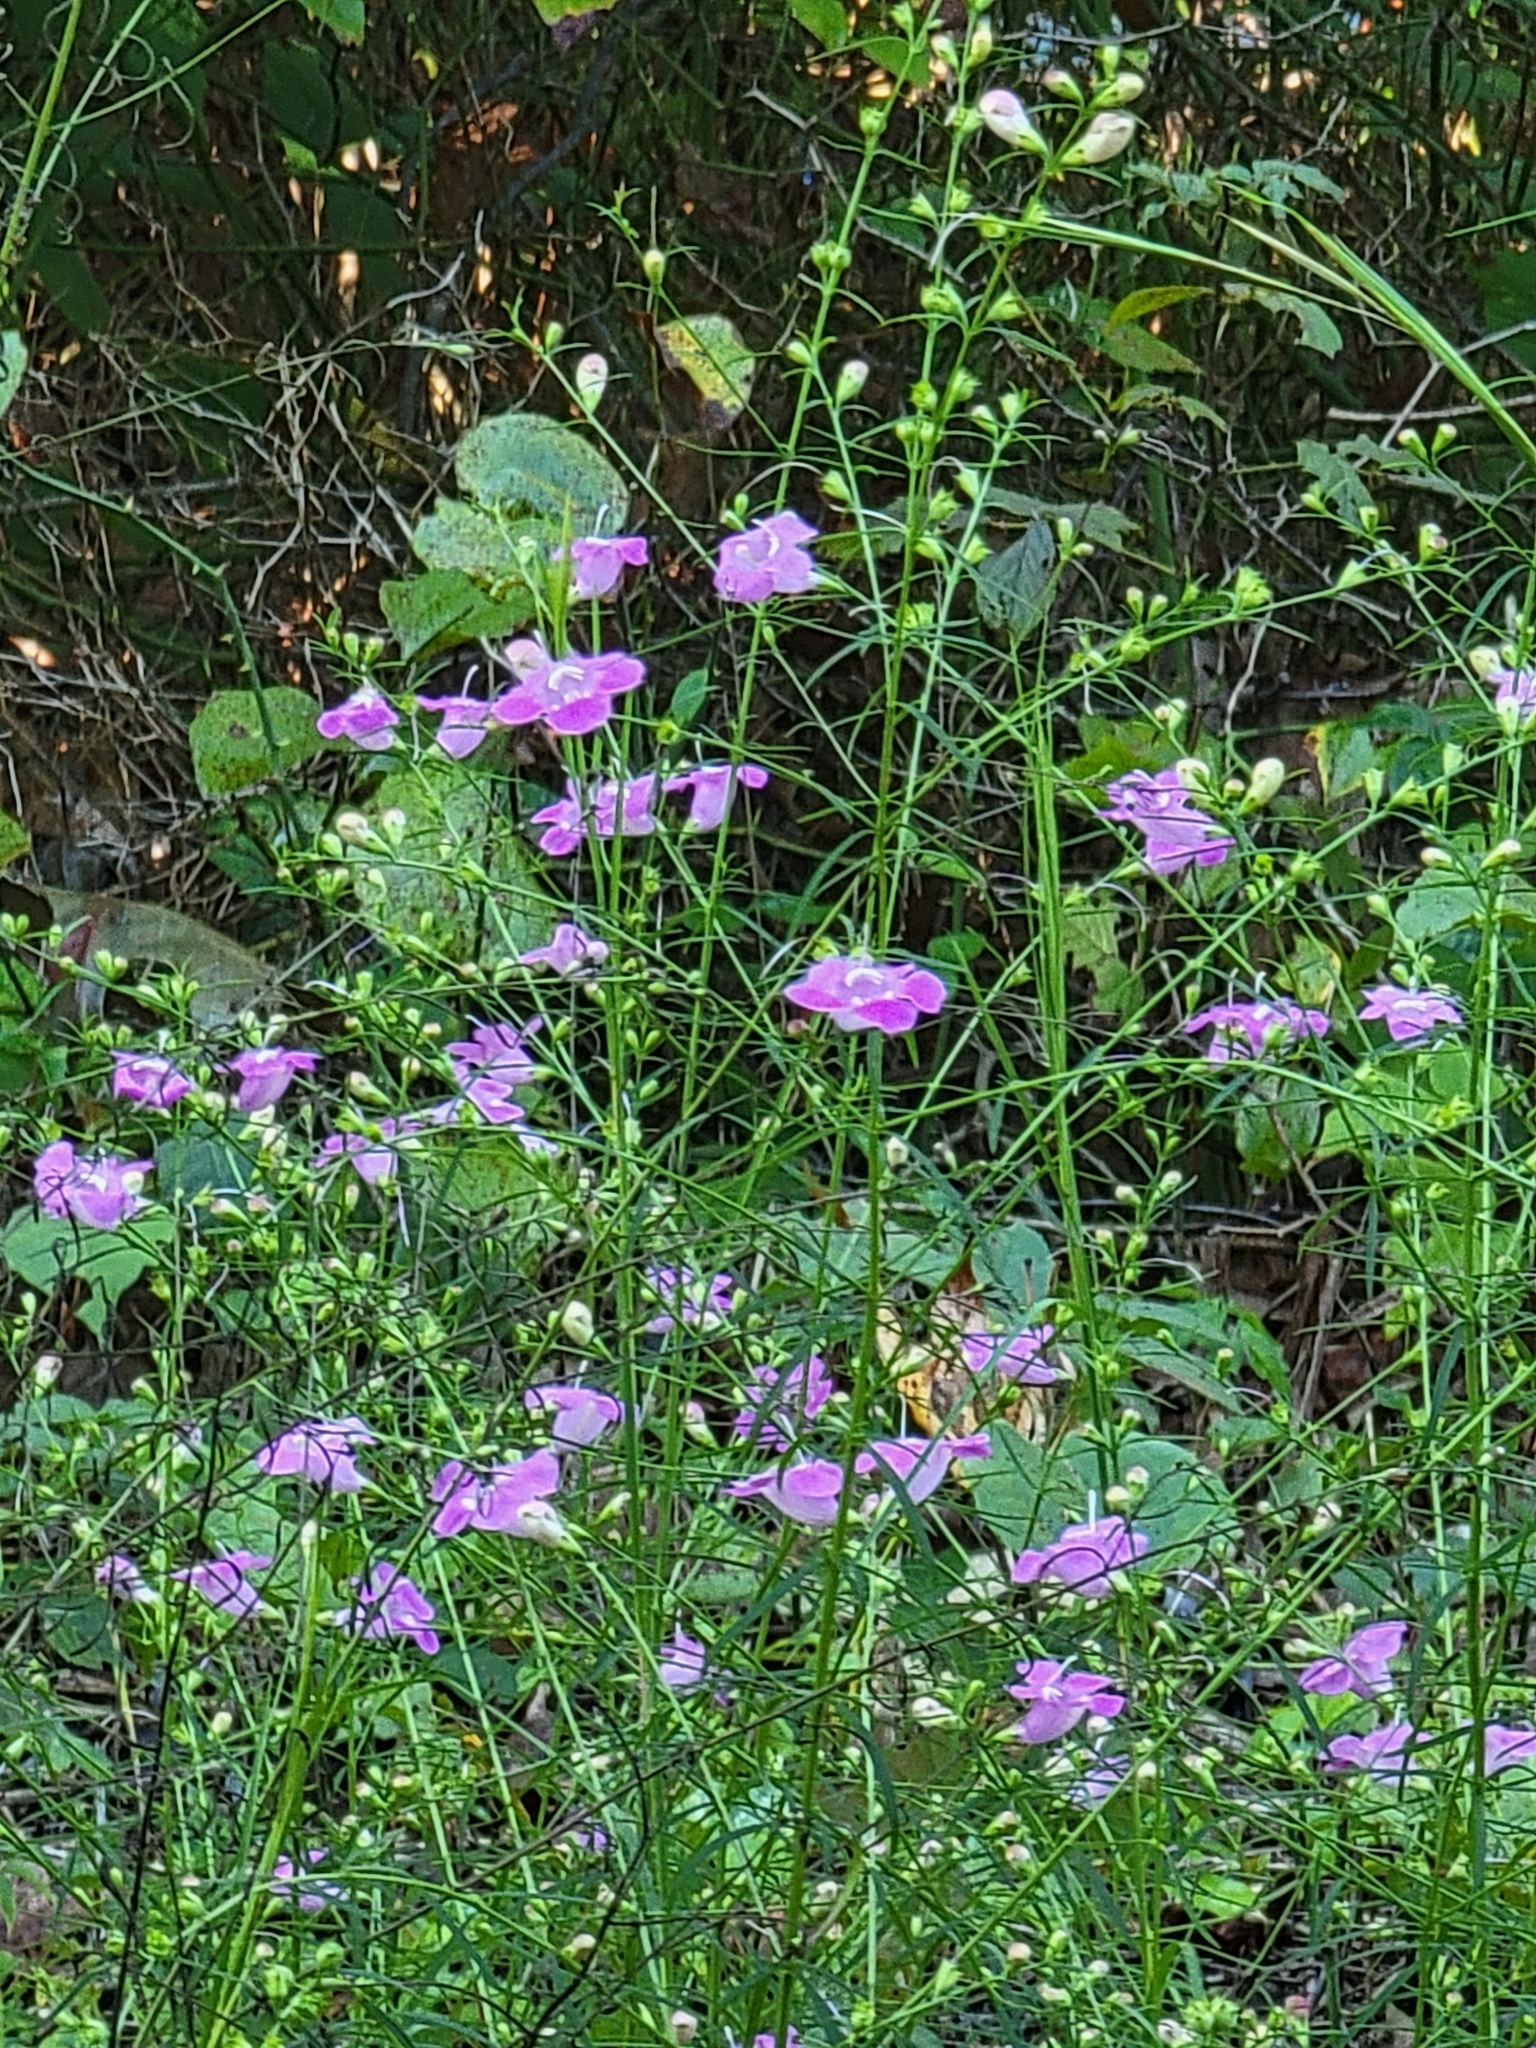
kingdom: Plantae
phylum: Tracheophyta
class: Magnoliopsida
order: Lamiales
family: Orobanchaceae
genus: Agalinis
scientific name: Agalinis purpurea
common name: Purple false foxglove
